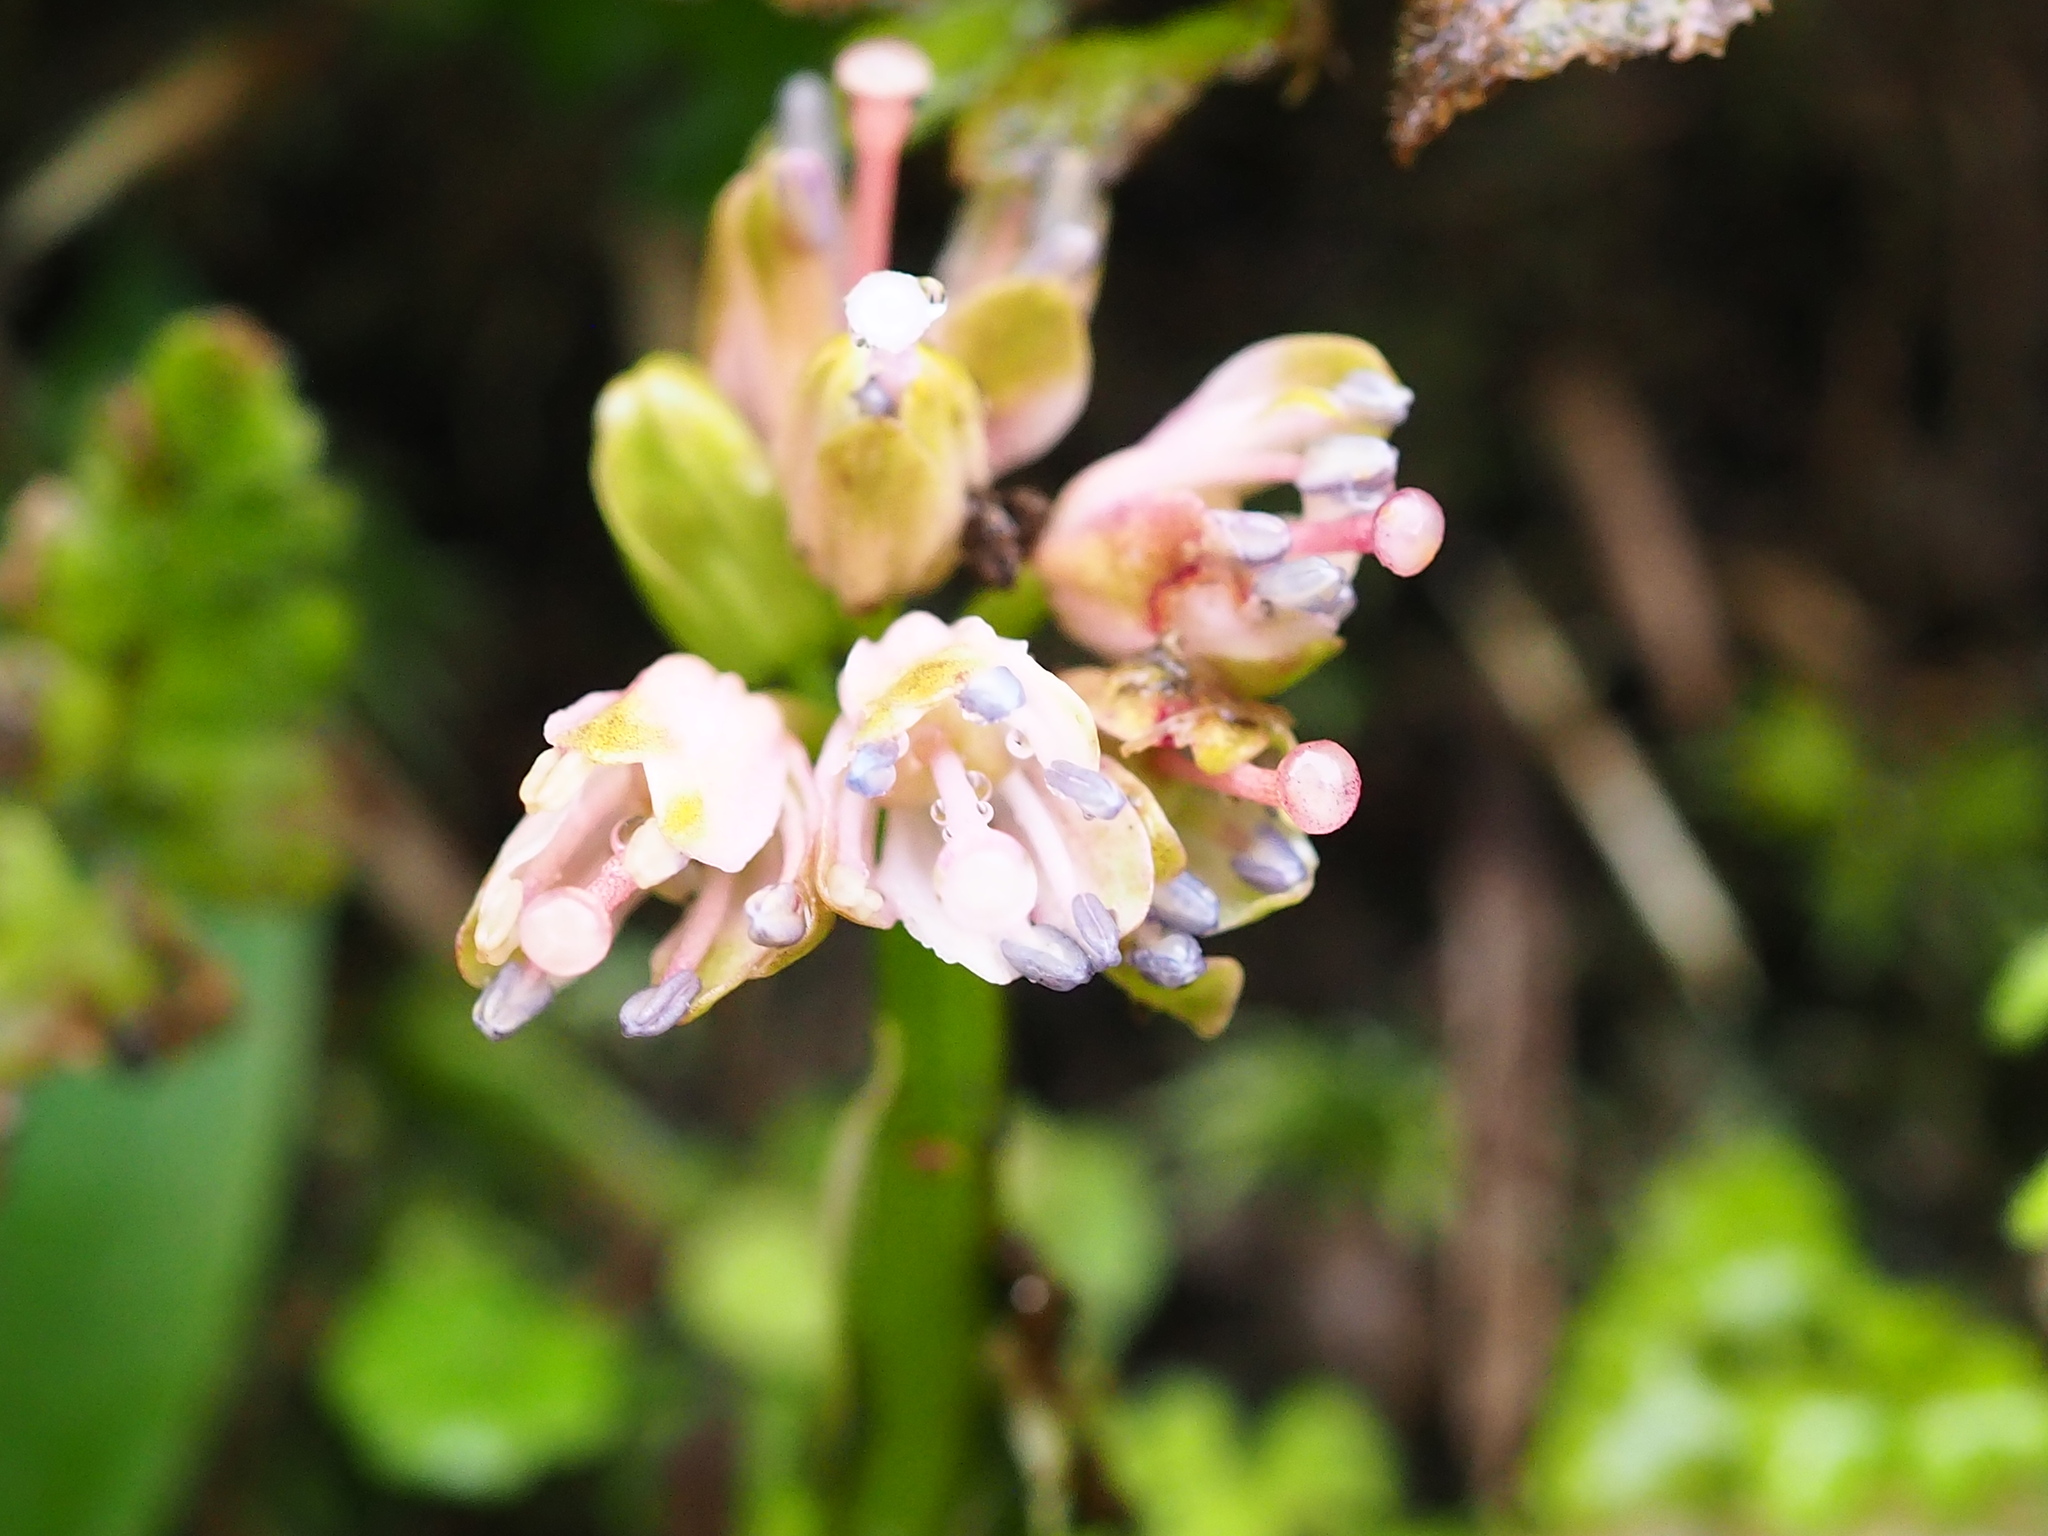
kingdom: Plantae
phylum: Tracheophyta
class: Liliopsida
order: Liliales
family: Melanthiaceae
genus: Helonias
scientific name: Helonias umbellata
